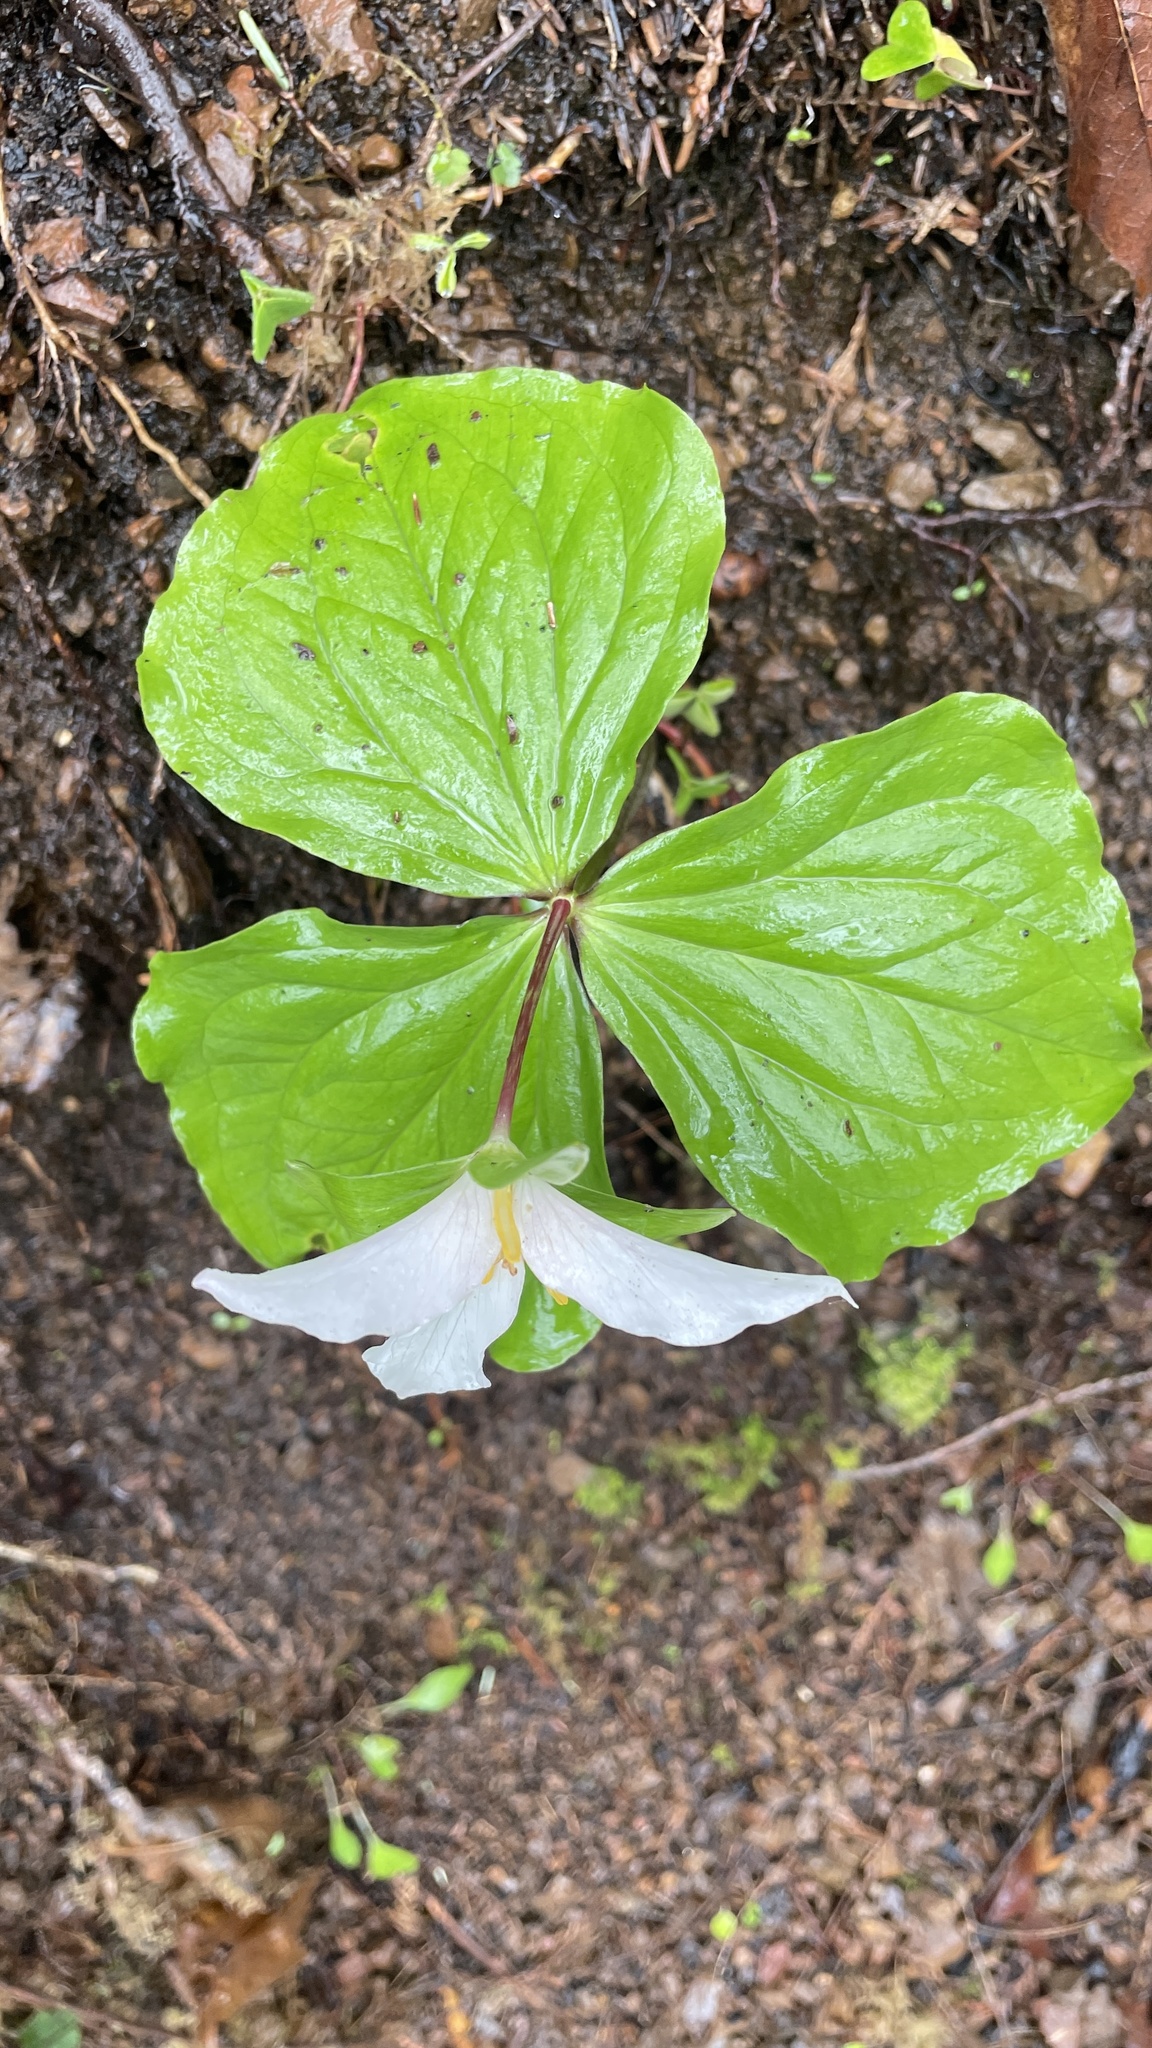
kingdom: Plantae
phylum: Tracheophyta
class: Liliopsida
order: Liliales
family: Melanthiaceae
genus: Trillium
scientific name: Trillium ovatum
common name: Pacific trillium
